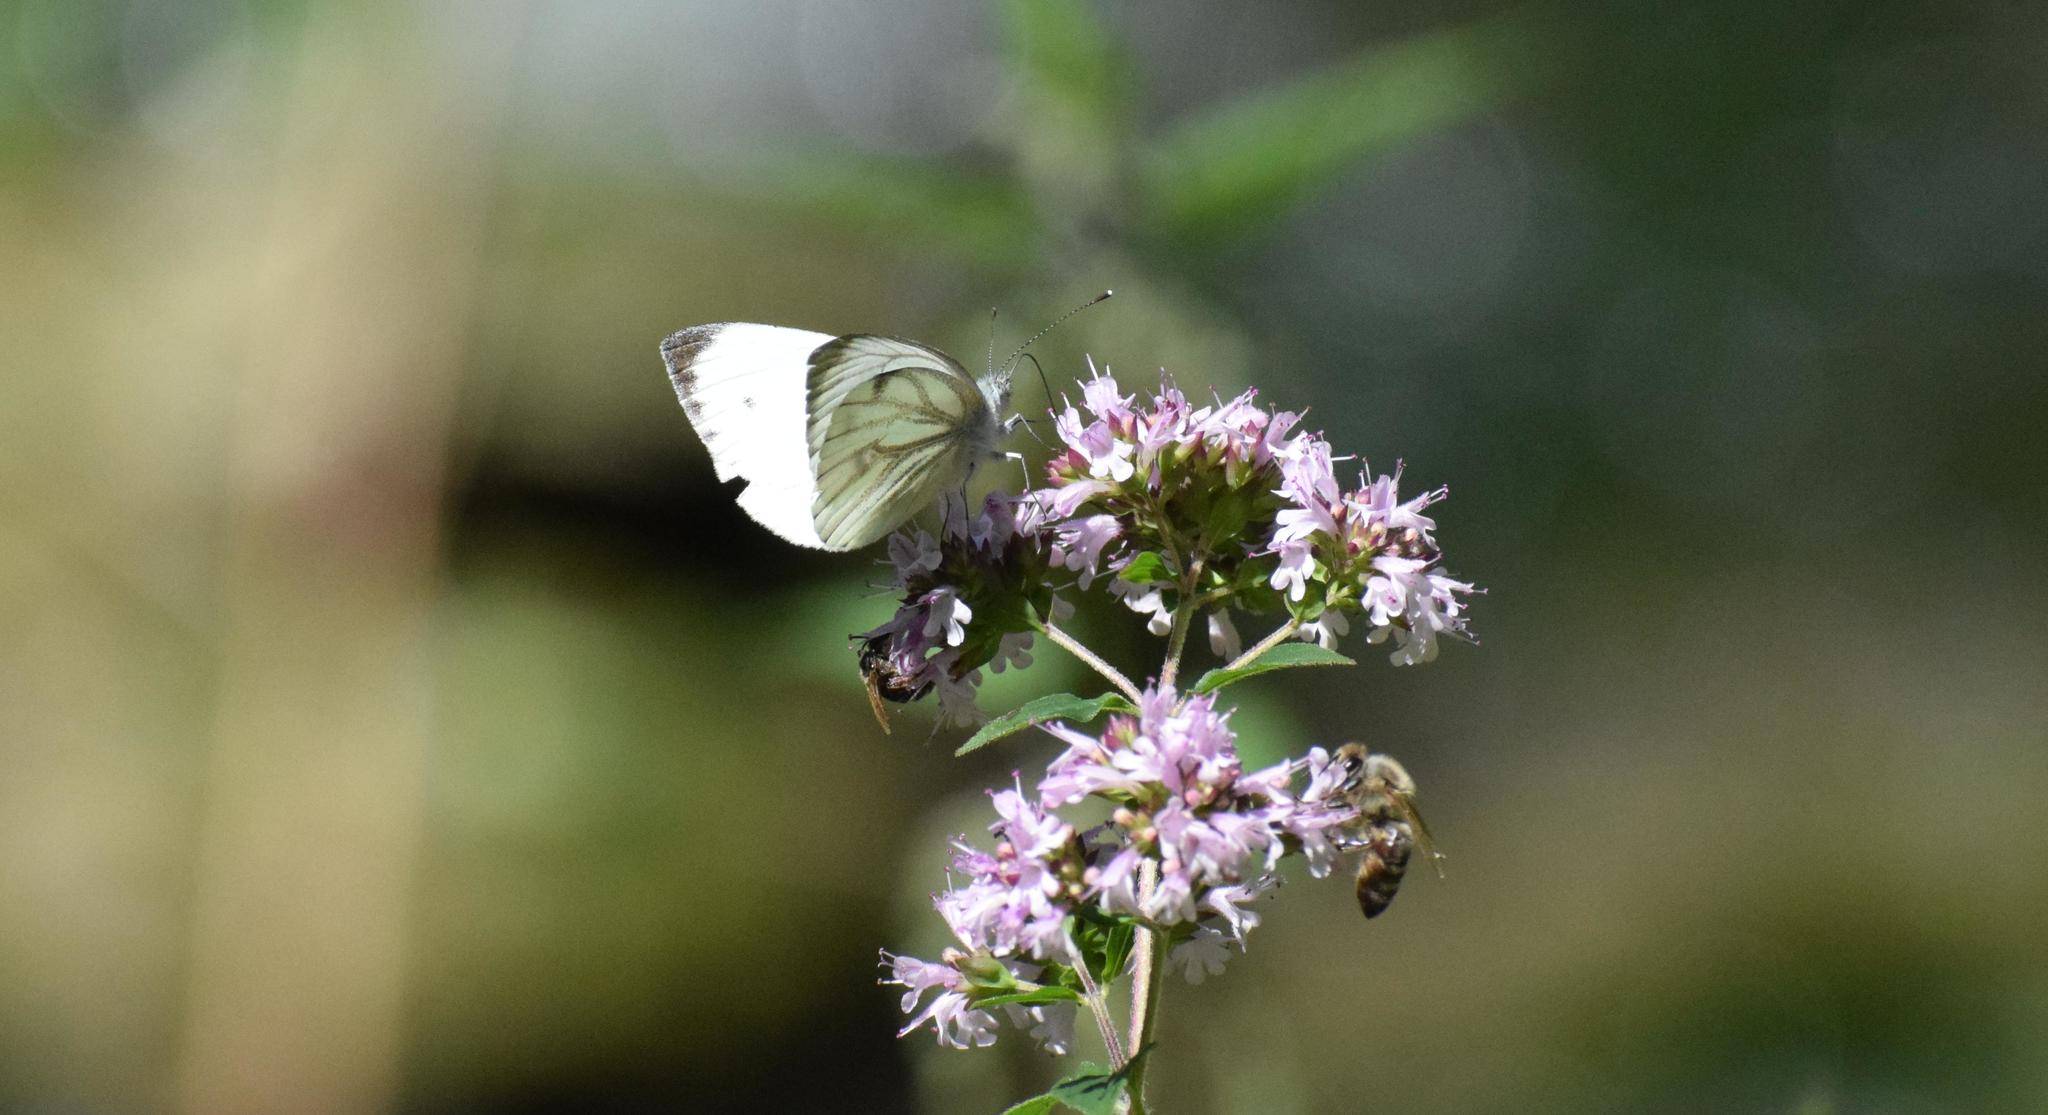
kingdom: Animalia
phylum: Arthropoda
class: Insecta
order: Lepidoptera
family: Pieridae
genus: Pieris
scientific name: Pieris napi
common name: Green-veined white
